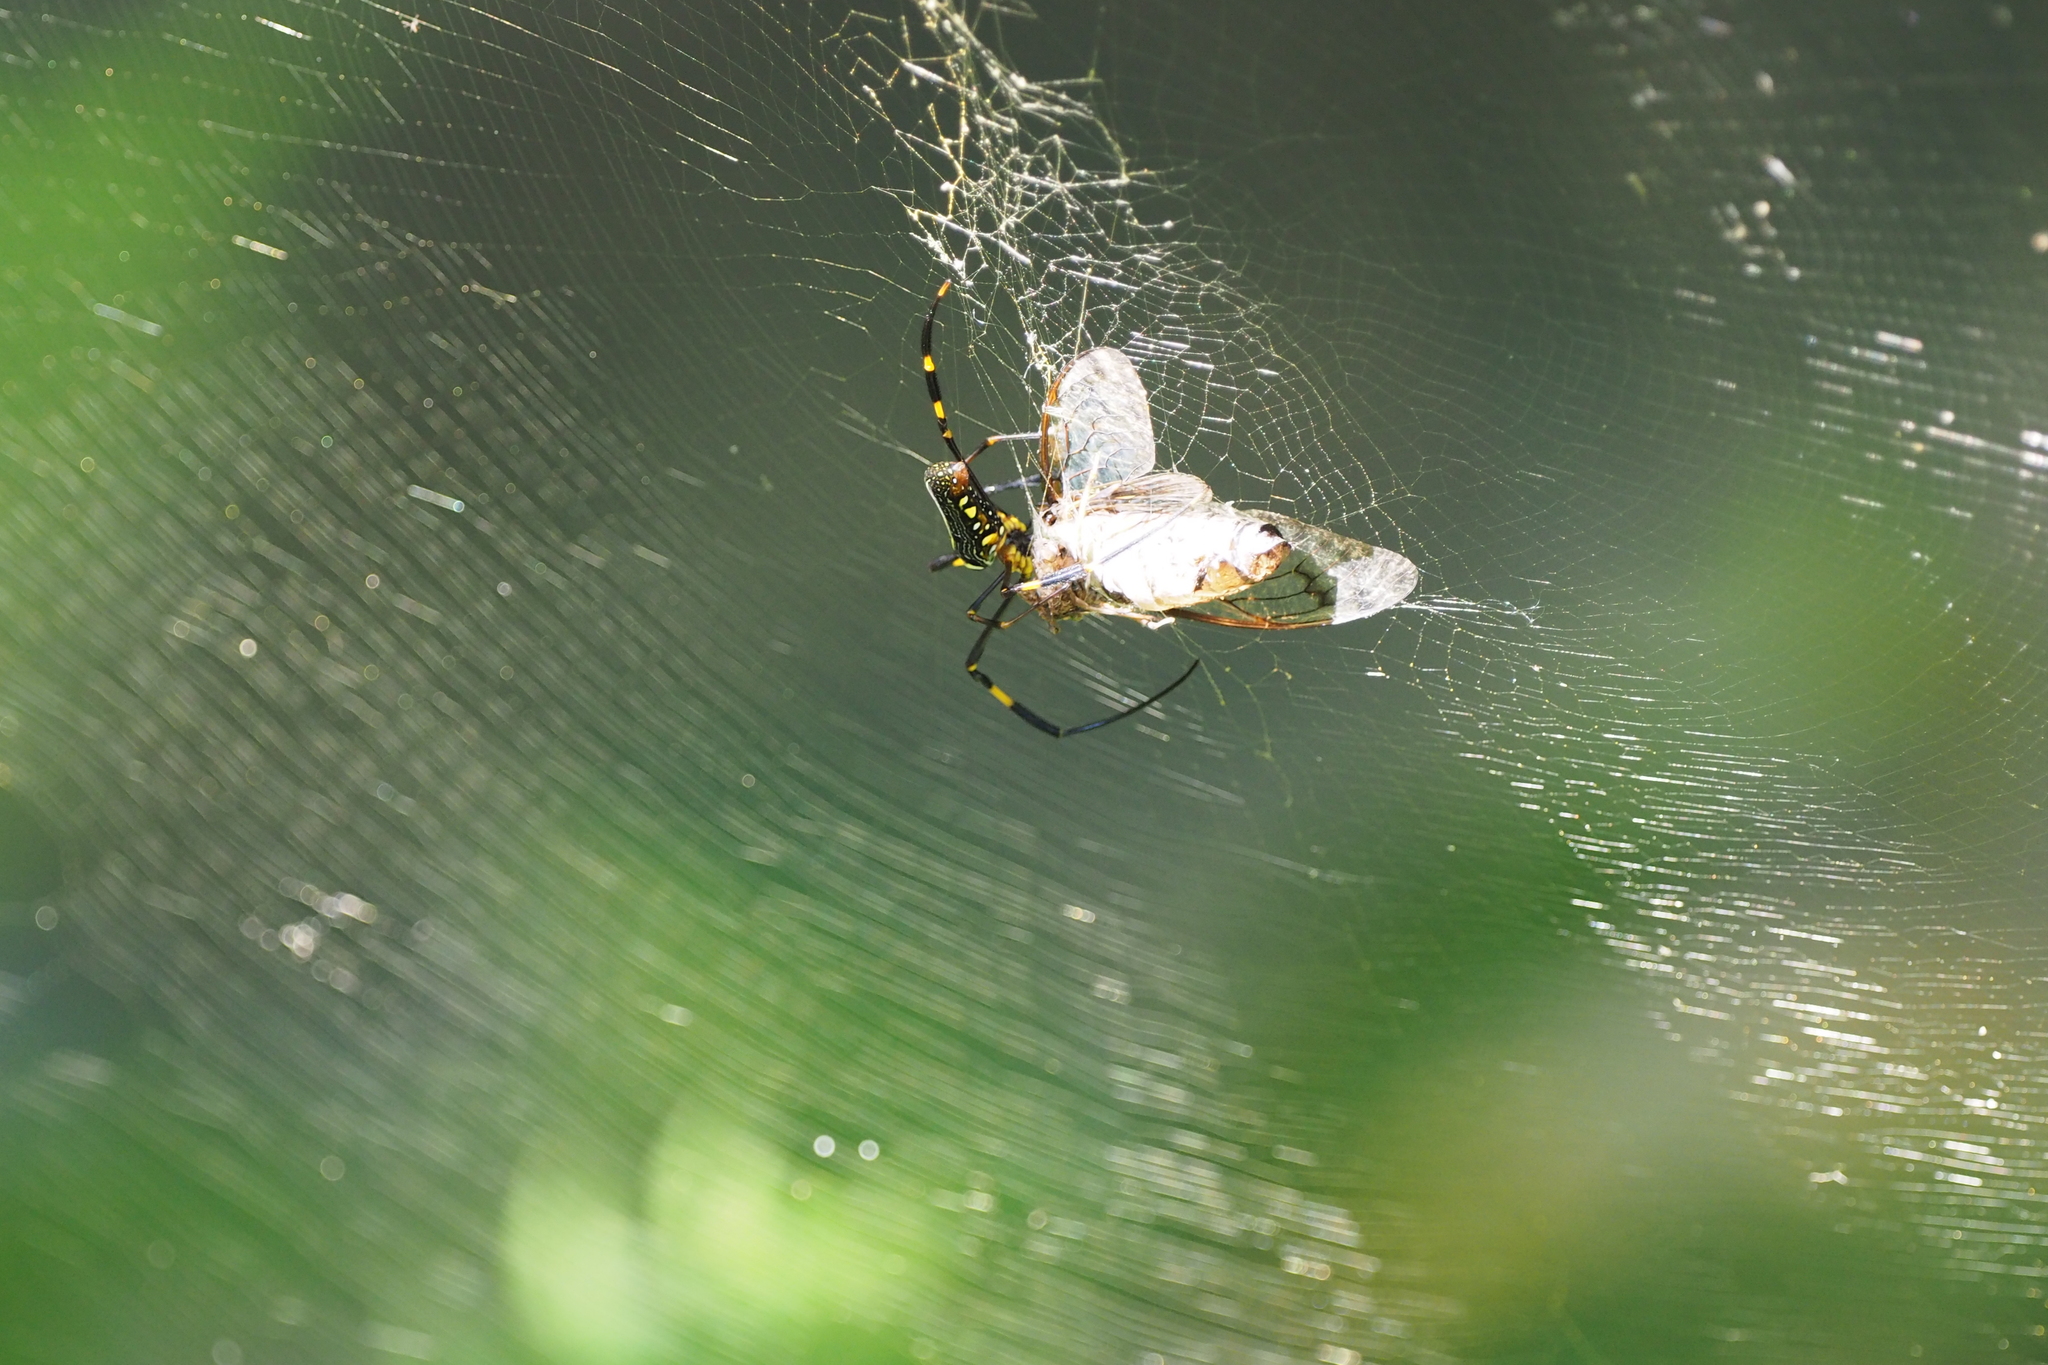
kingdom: Animalia
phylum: Arthropoda
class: Arachnida
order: Araneae
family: Araneidae
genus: Nephila
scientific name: Nephila pilipes
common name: Giant golden orb weaver
